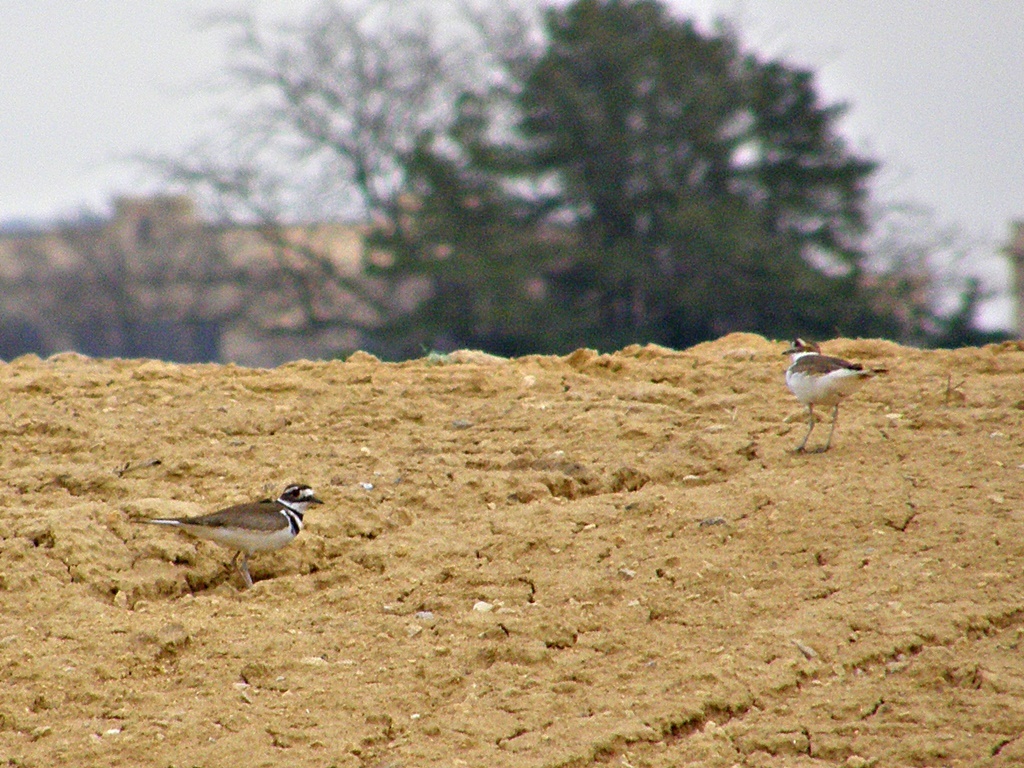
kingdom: Animalia
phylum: Chordata
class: Aves
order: Charadriiformes
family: Charadriidae
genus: Charadrius
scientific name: Charadrius vociferus
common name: Killdeer
